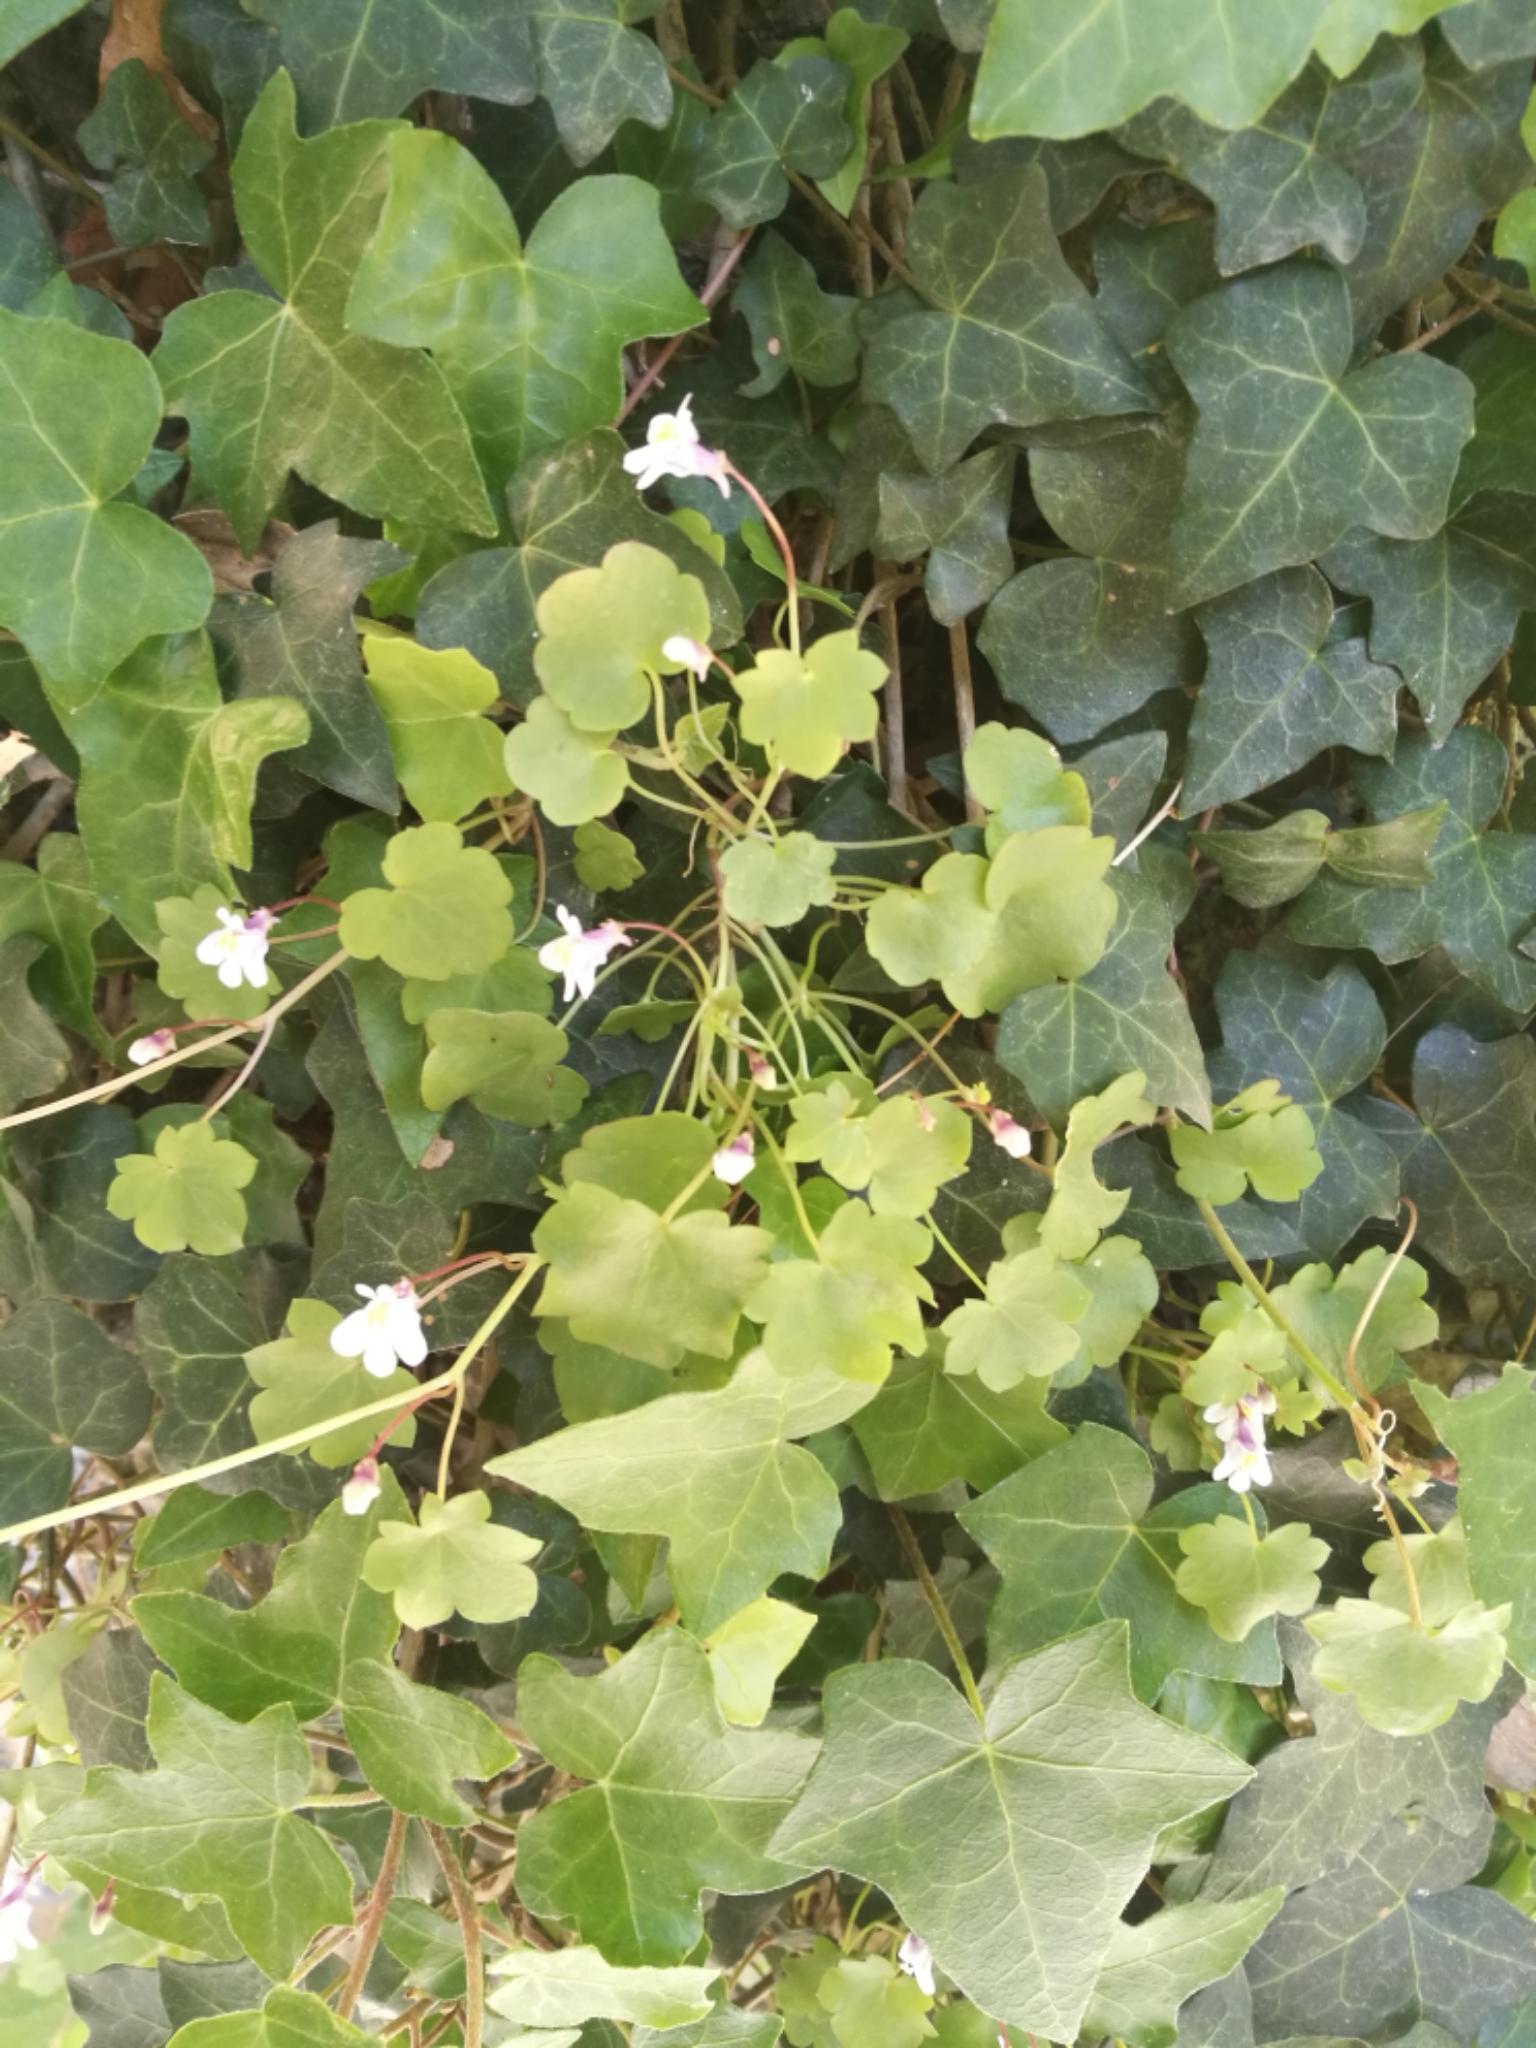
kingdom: Plantae
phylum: Tracheophyta
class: Magnoliopsida
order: Lamiales
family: Plantaginaceae
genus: Cymbalaria
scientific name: Cymbalaria muralis
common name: Ivy-leaved toadflax
